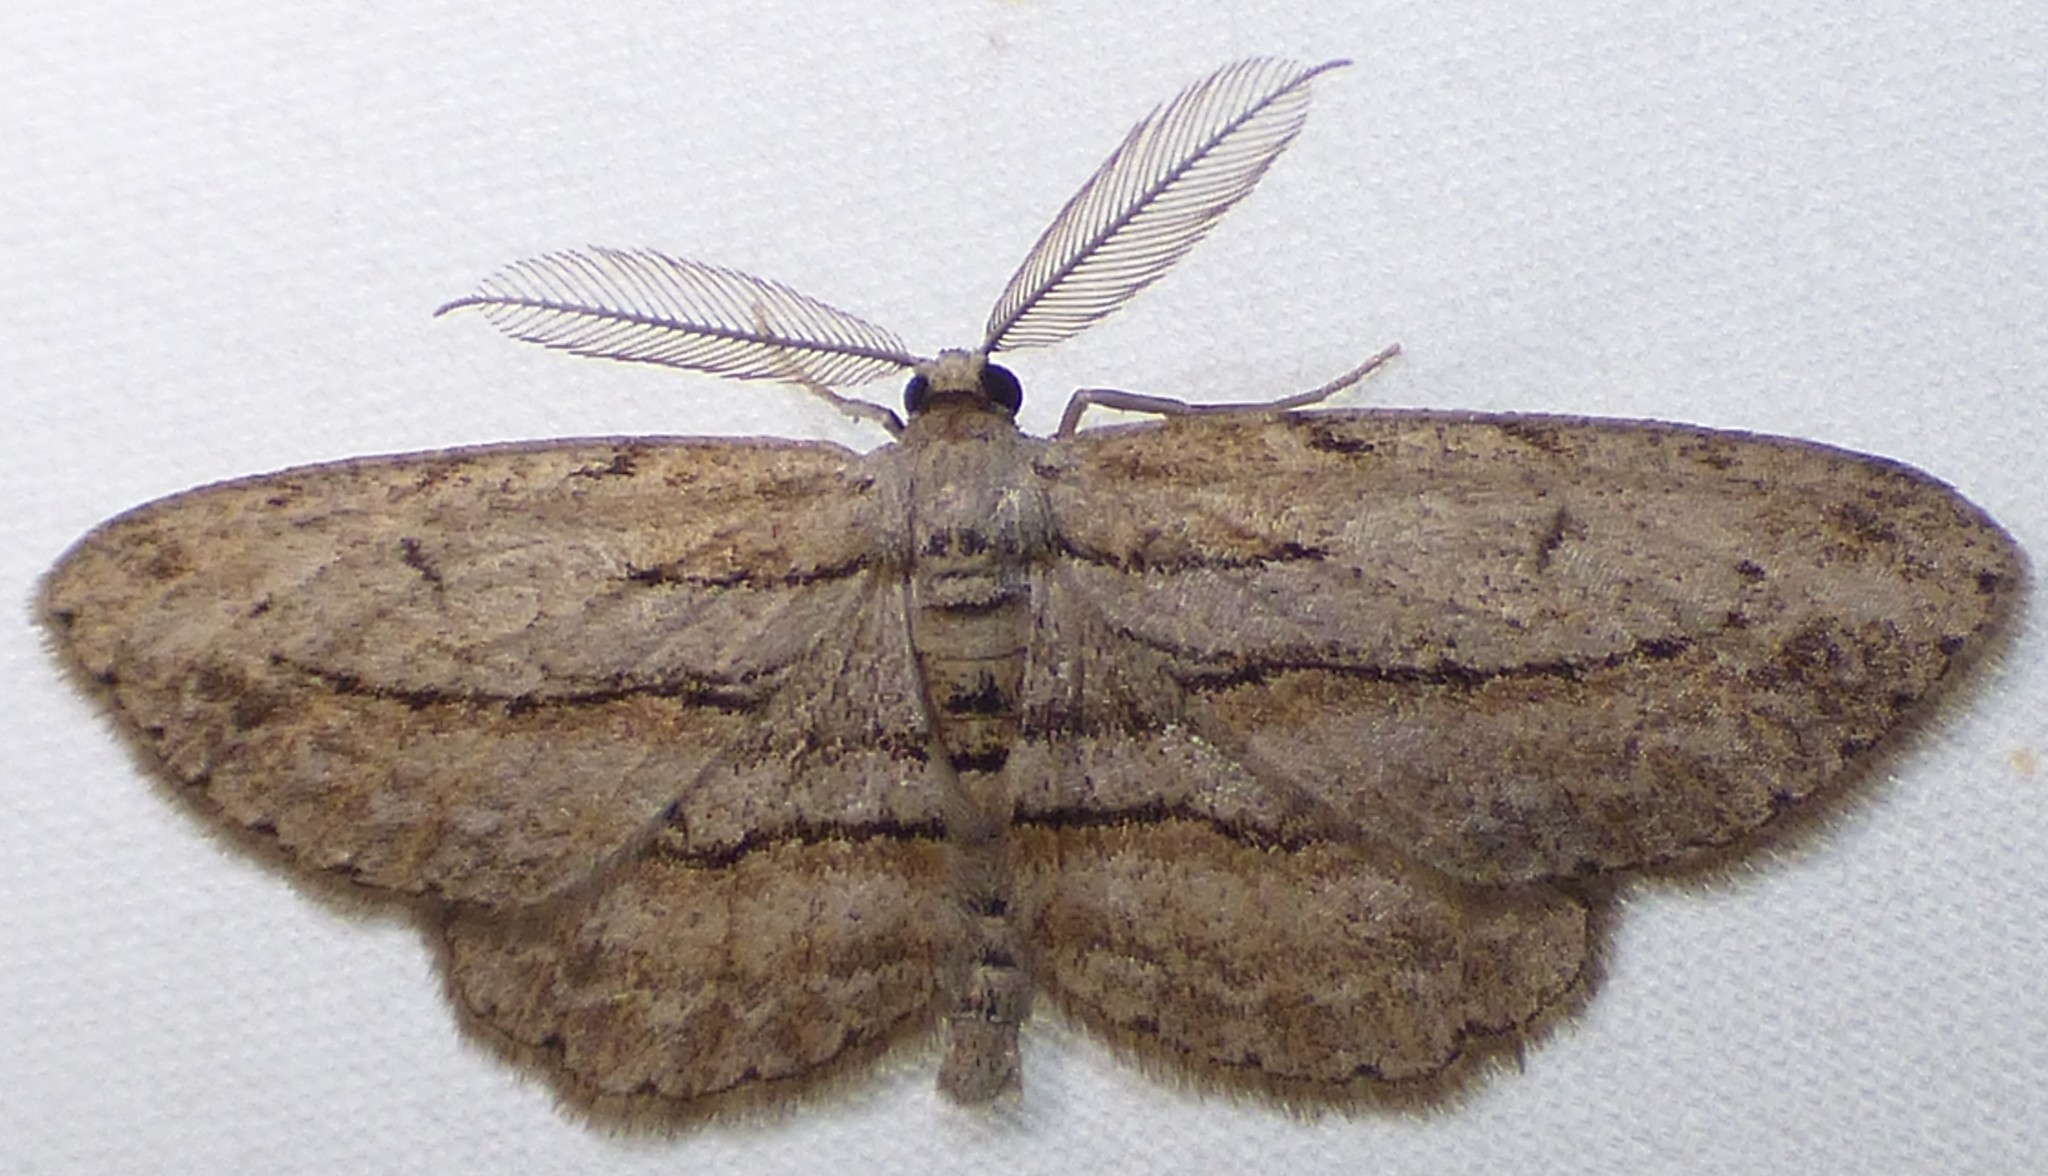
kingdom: Animalia
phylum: Arthropoda
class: Insecta
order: Lepidoptera
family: Geometridae
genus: Glena
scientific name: Glena plumosaria
